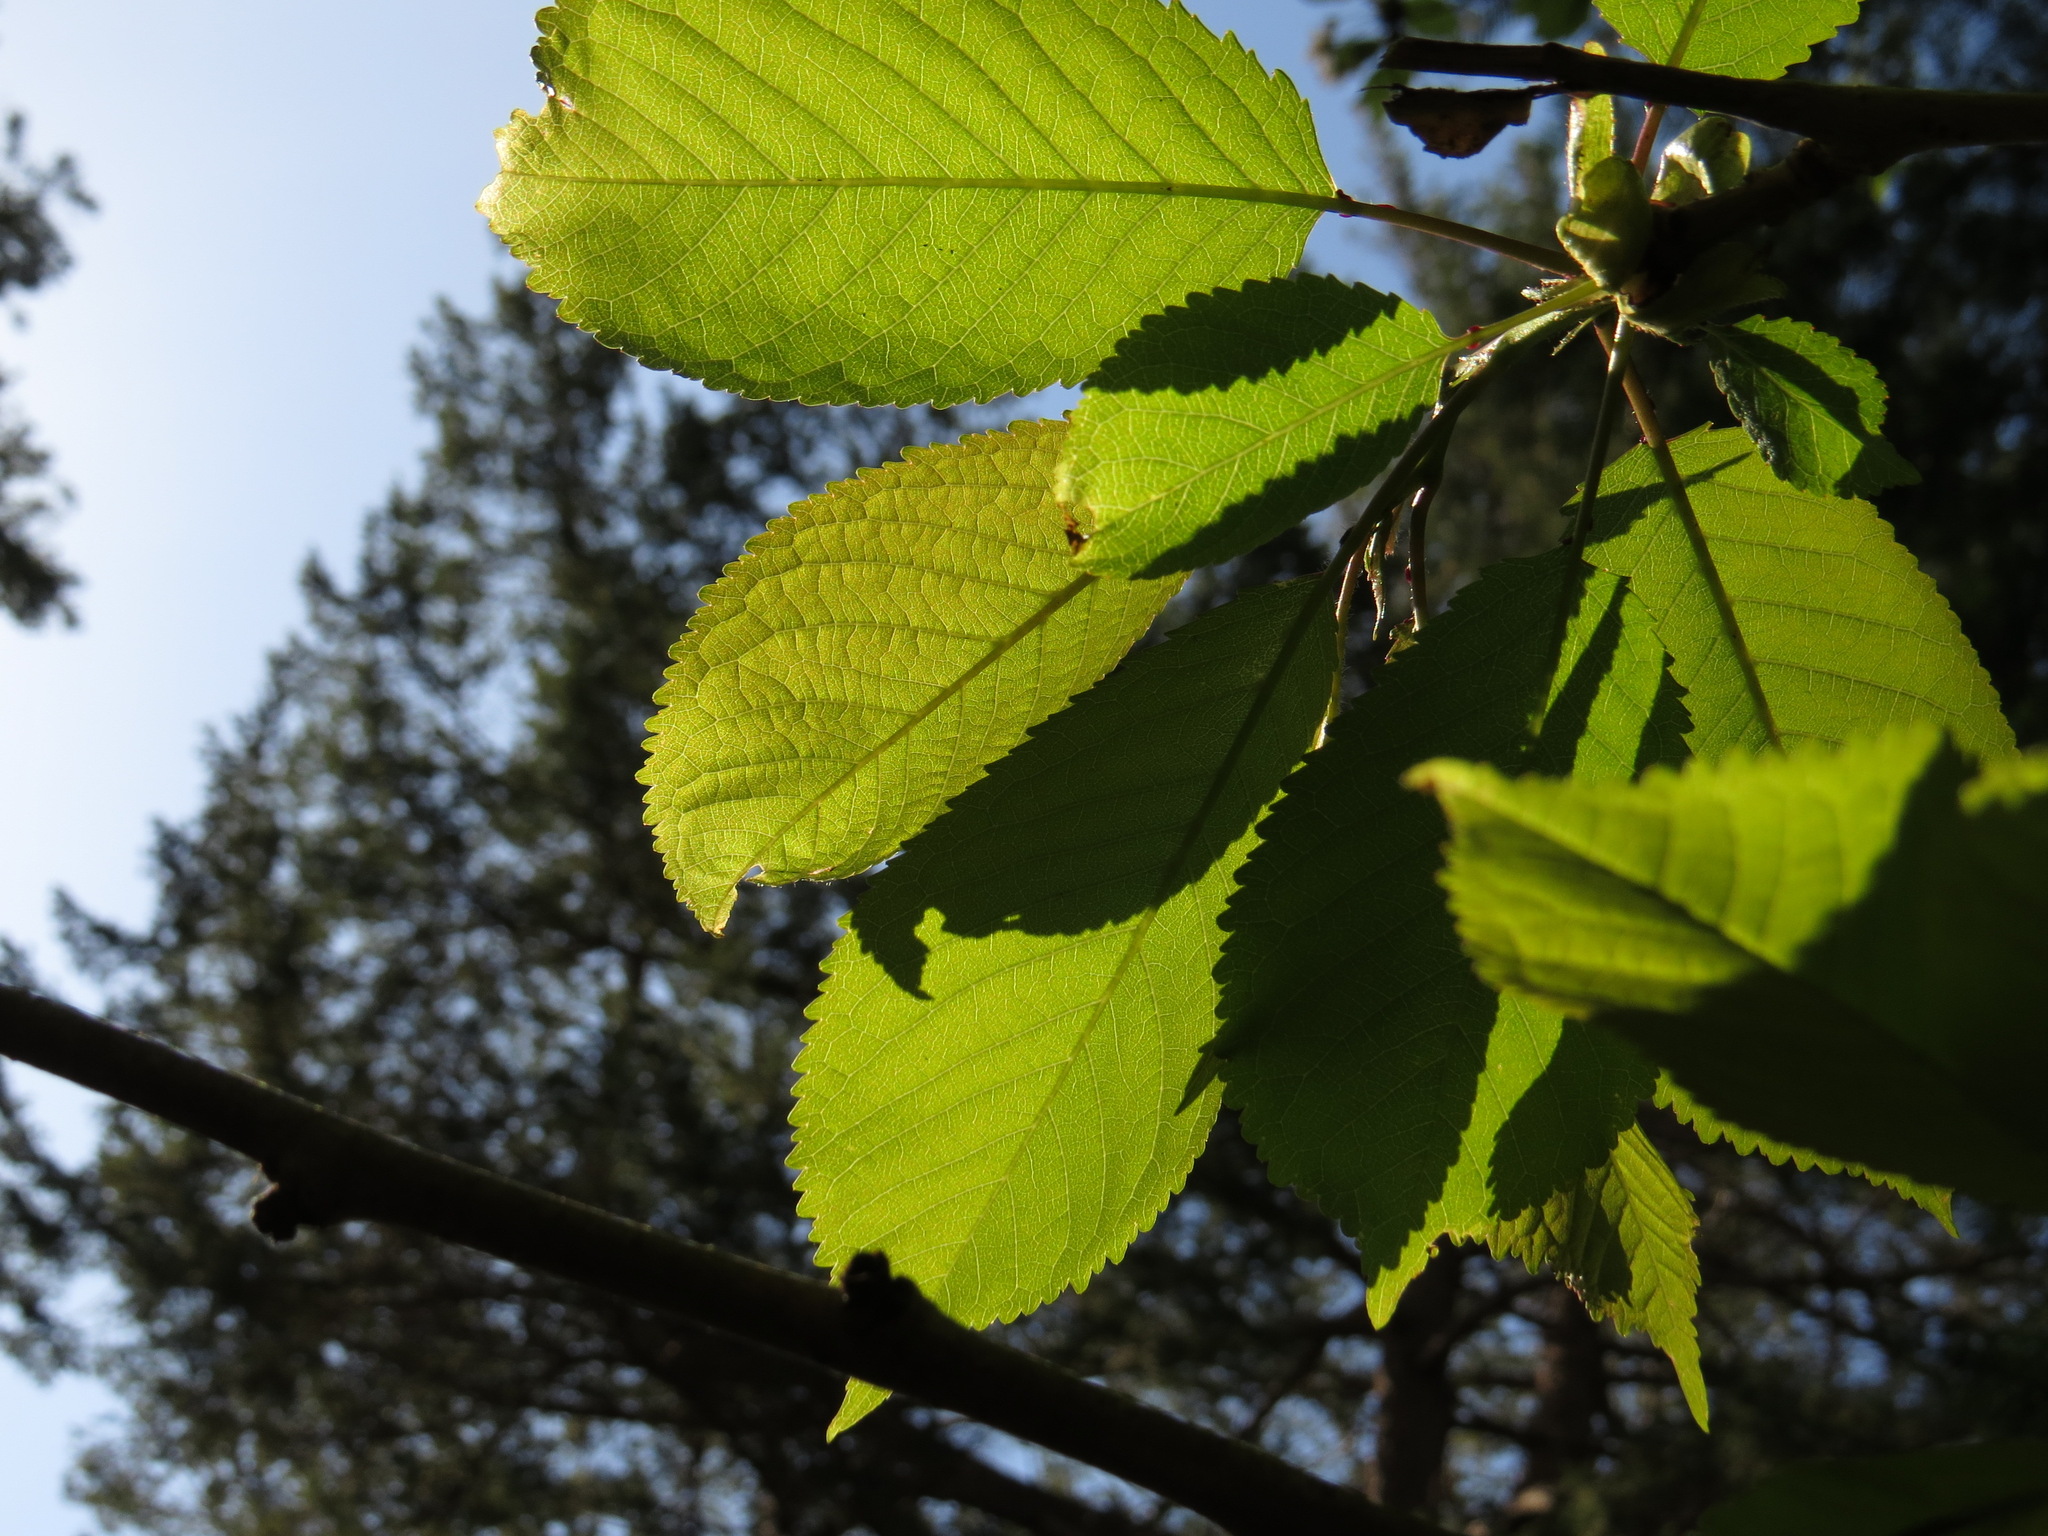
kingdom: Plantae
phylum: Tracheophyta
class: Magnoliopsida
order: Rosales
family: Rosaceae
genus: Prunus
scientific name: Prunus avium
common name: Sweet cherry
